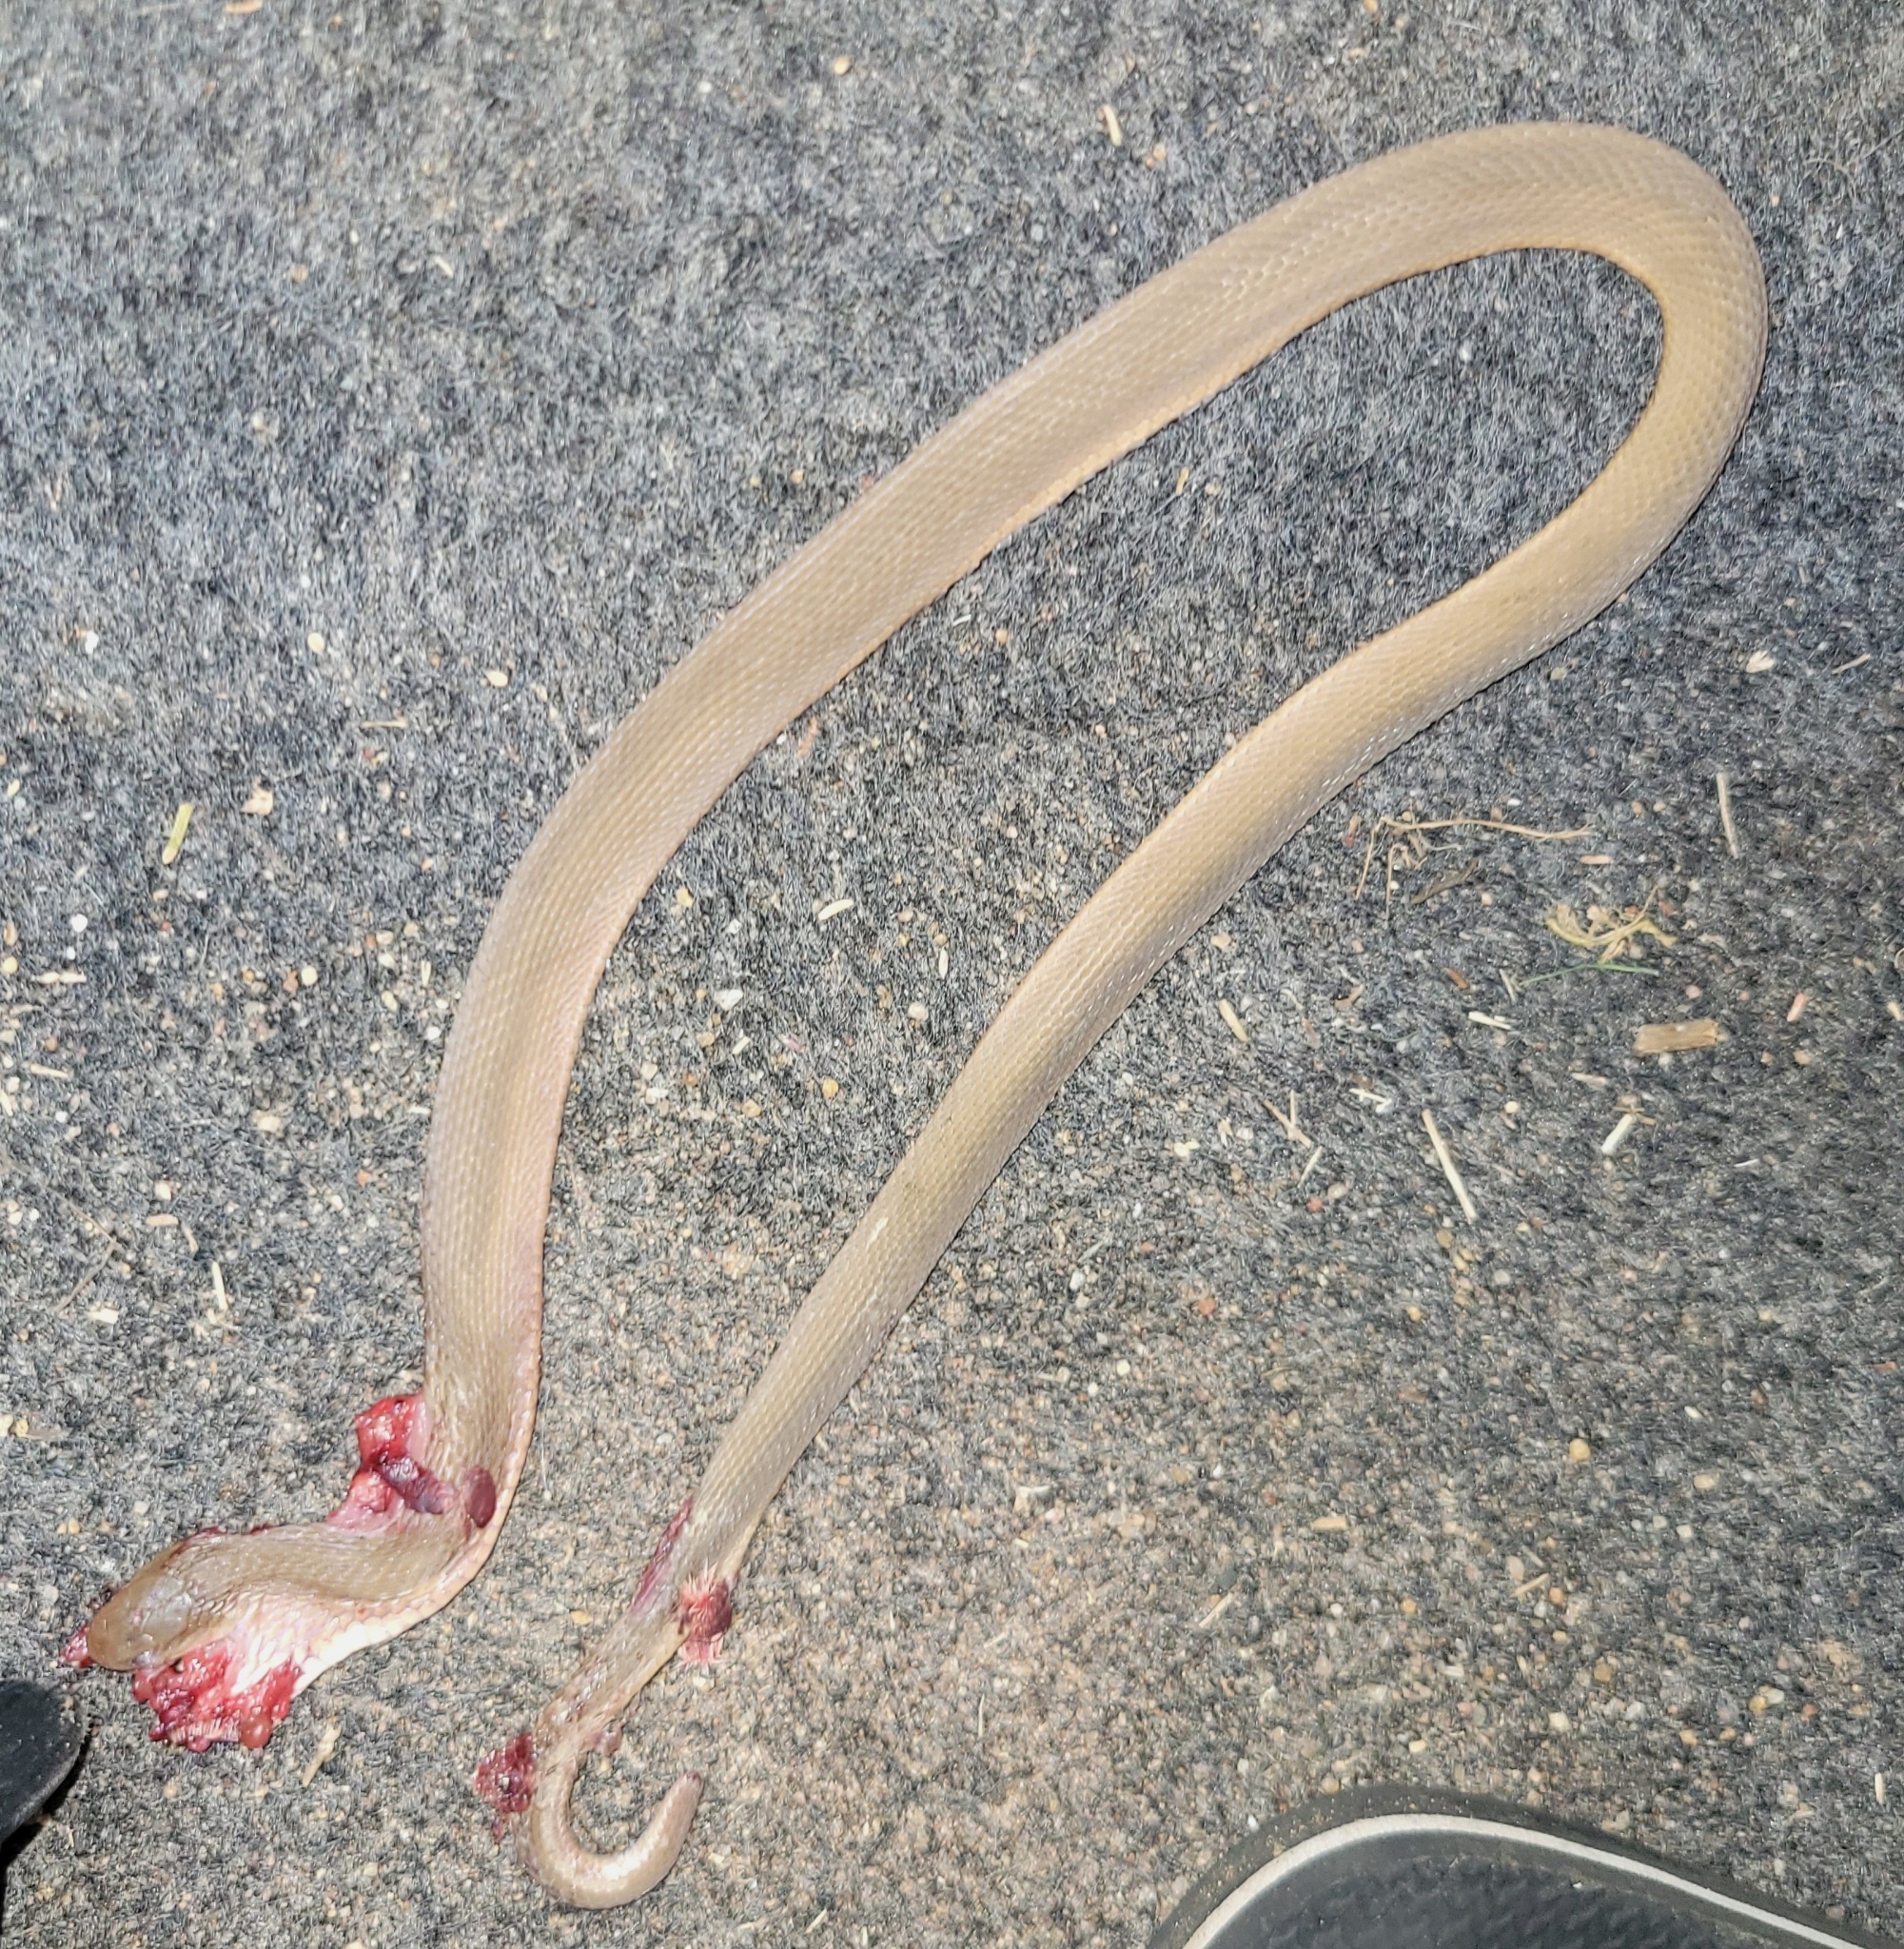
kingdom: Animalia
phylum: Chordata
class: Squamata
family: Colubridae
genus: Dasypeltis
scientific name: Dasypeltis inornata
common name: Southern brown egg eater
